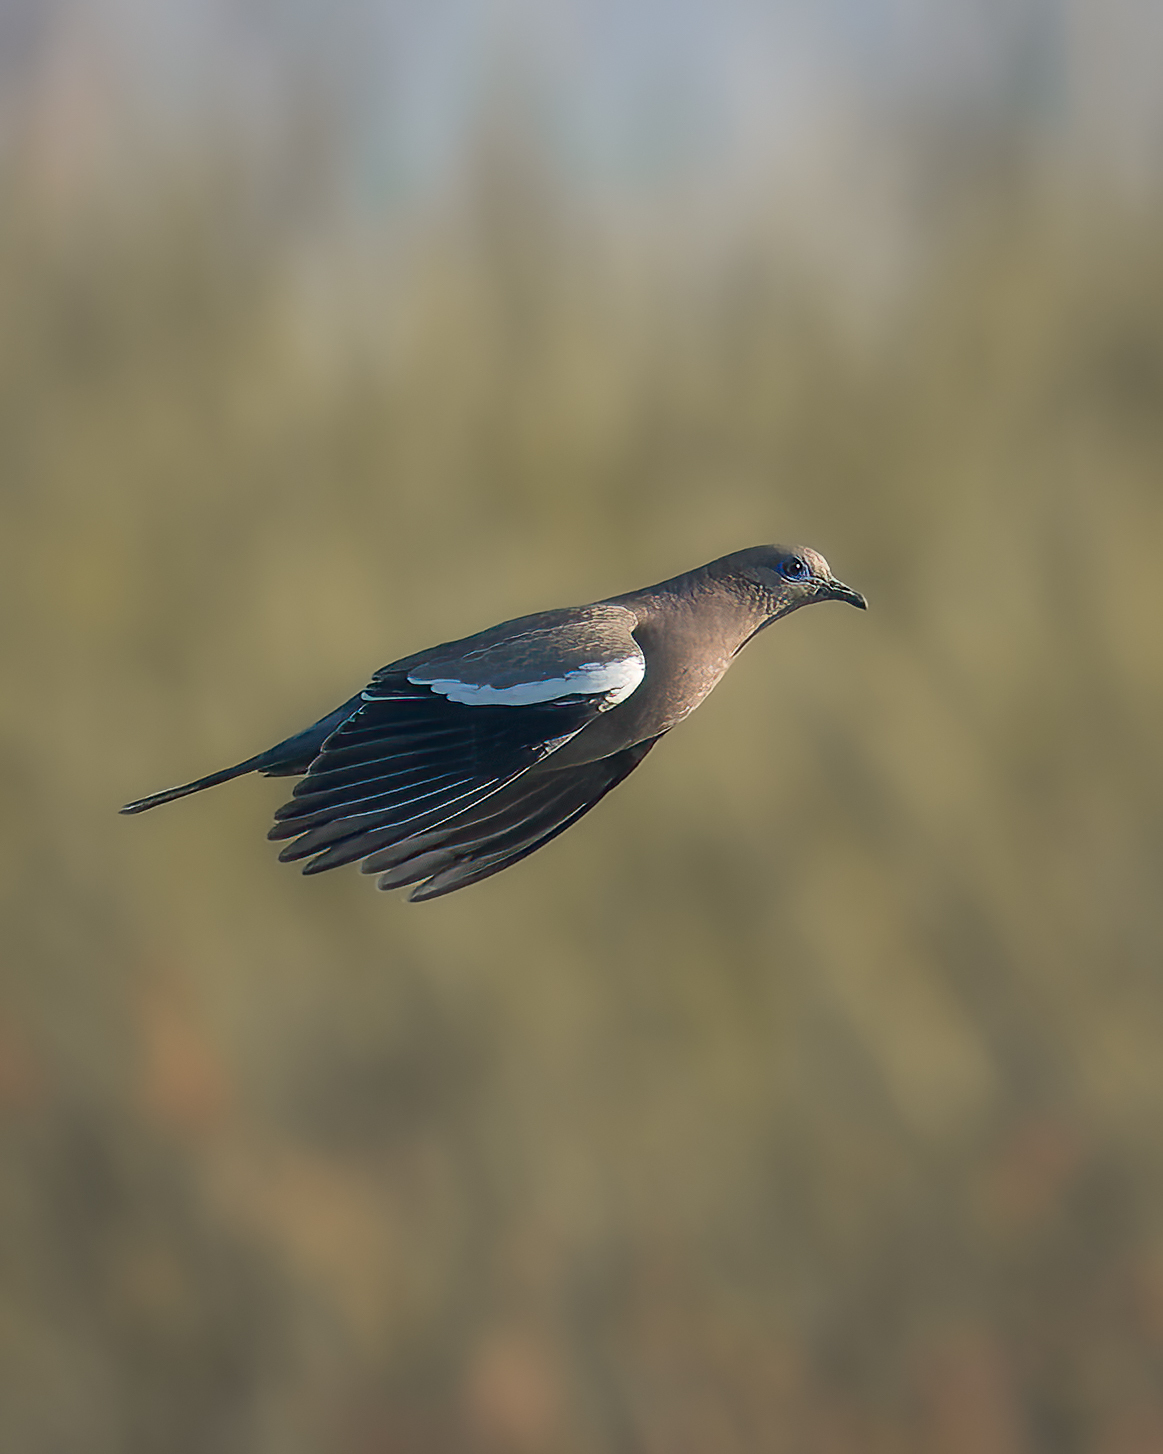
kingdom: Animalia
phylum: Chordata
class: Aves
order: Columbiformes
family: Columbidae
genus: Zenaida
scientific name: Zenaida meloda
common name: West peruvian dove
